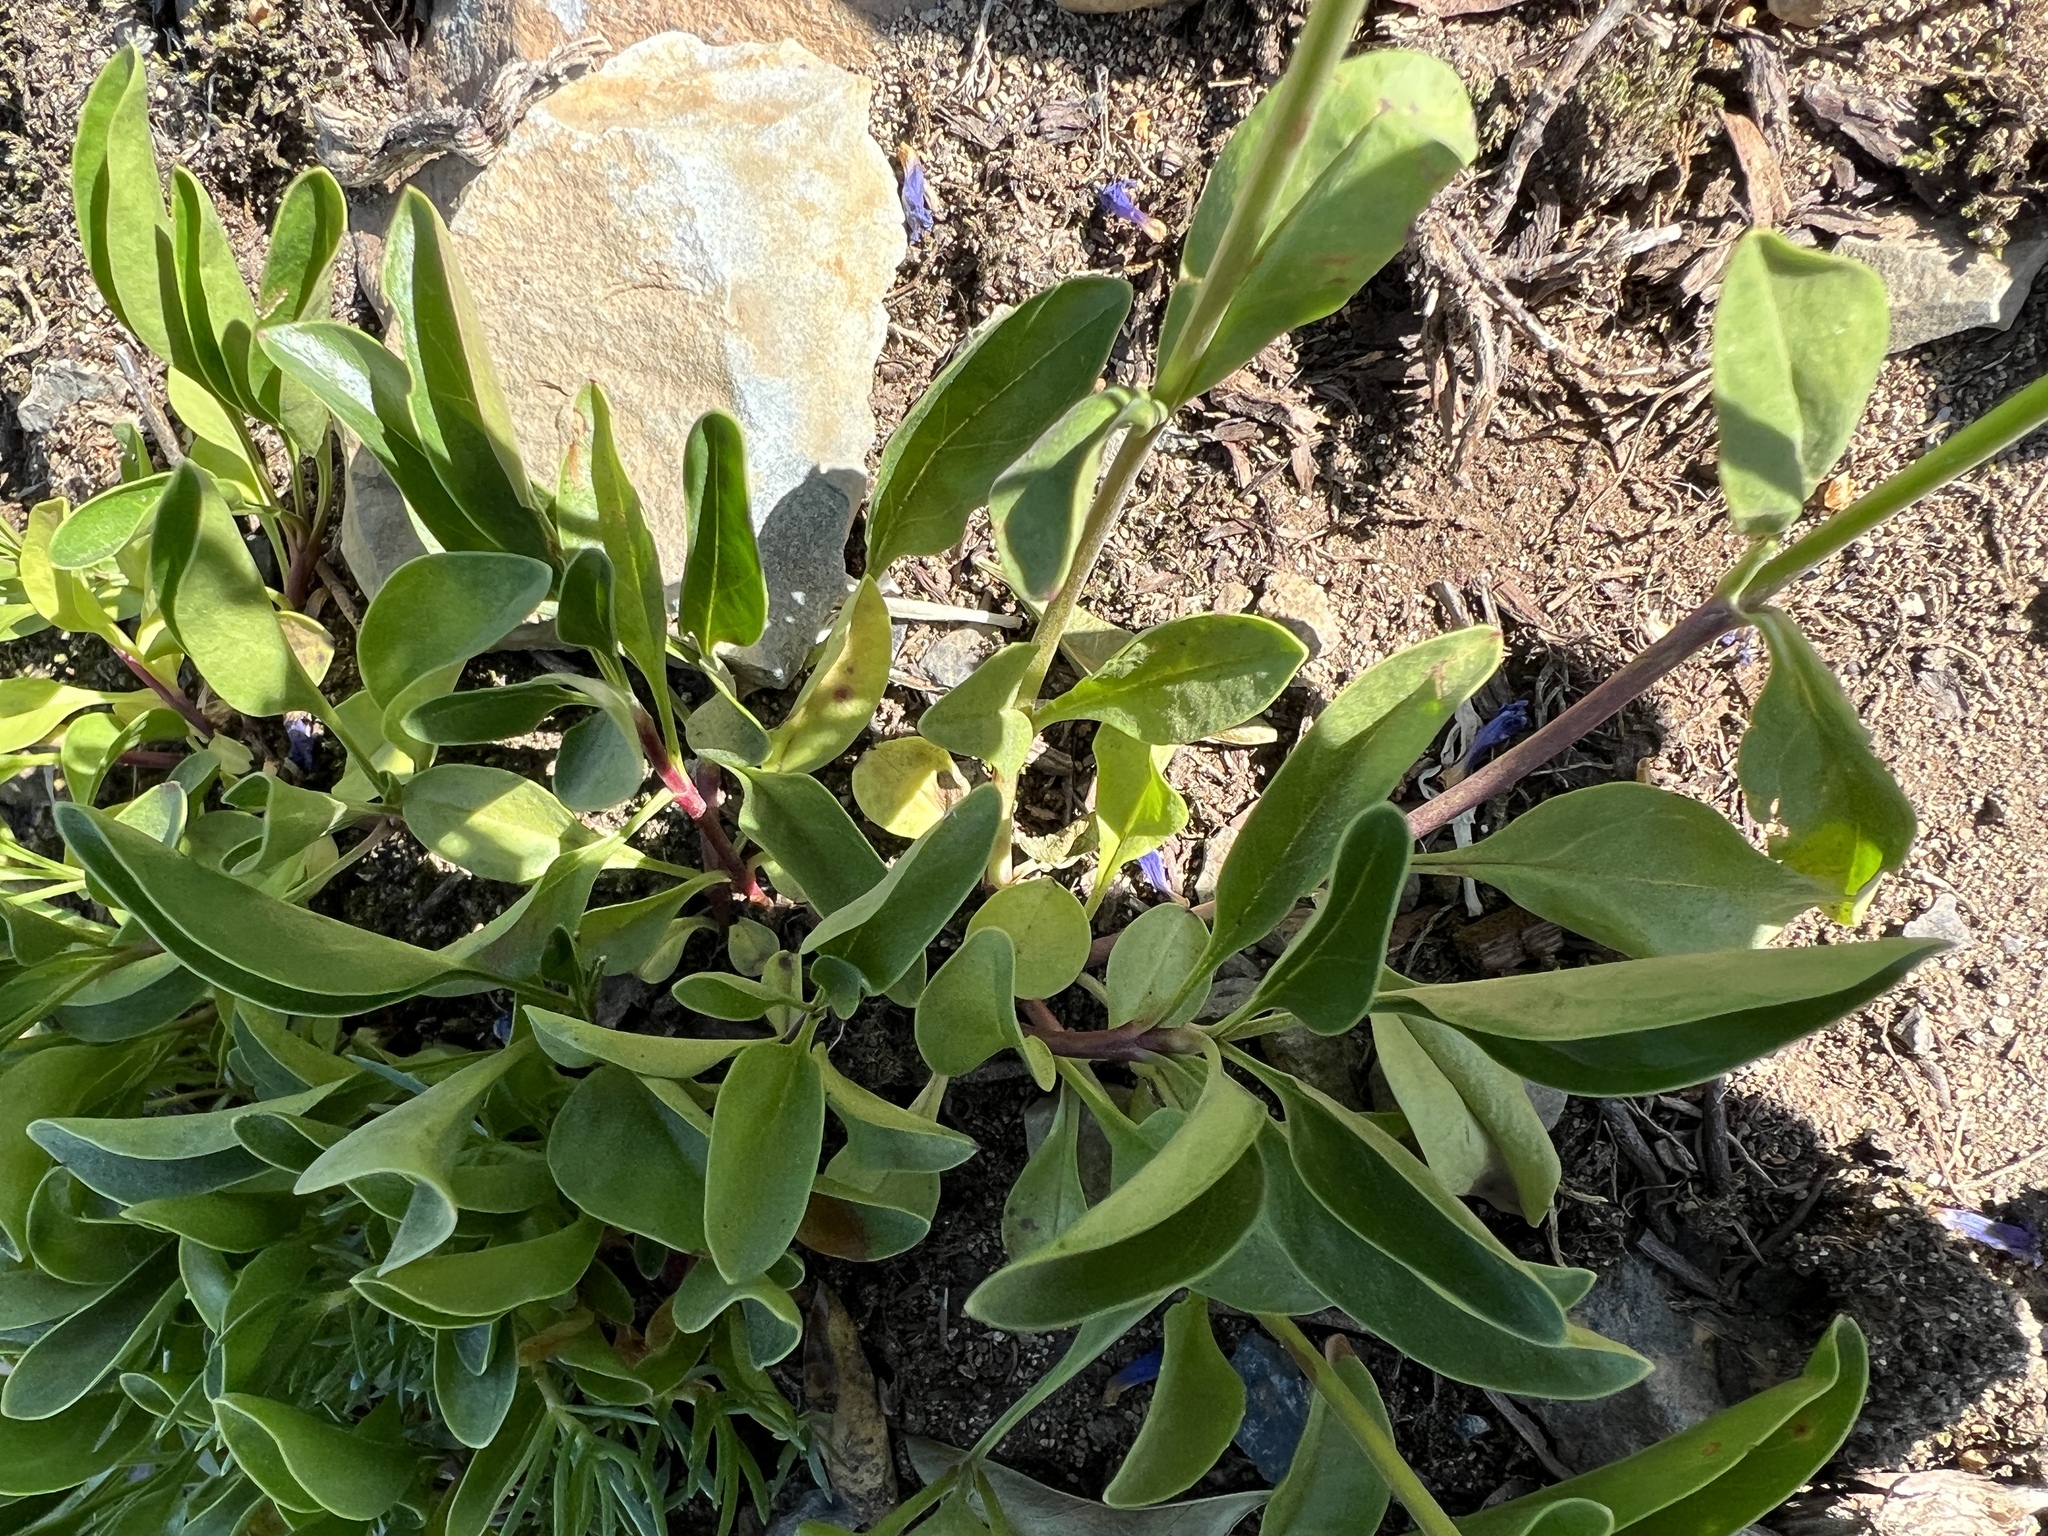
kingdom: Plantae
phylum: Tracheophyta
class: Magnoliopsida
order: Lamiales
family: Plantaginaceae
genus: Penstemon
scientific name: Penstemon procerus
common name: Small-flower penstemon
